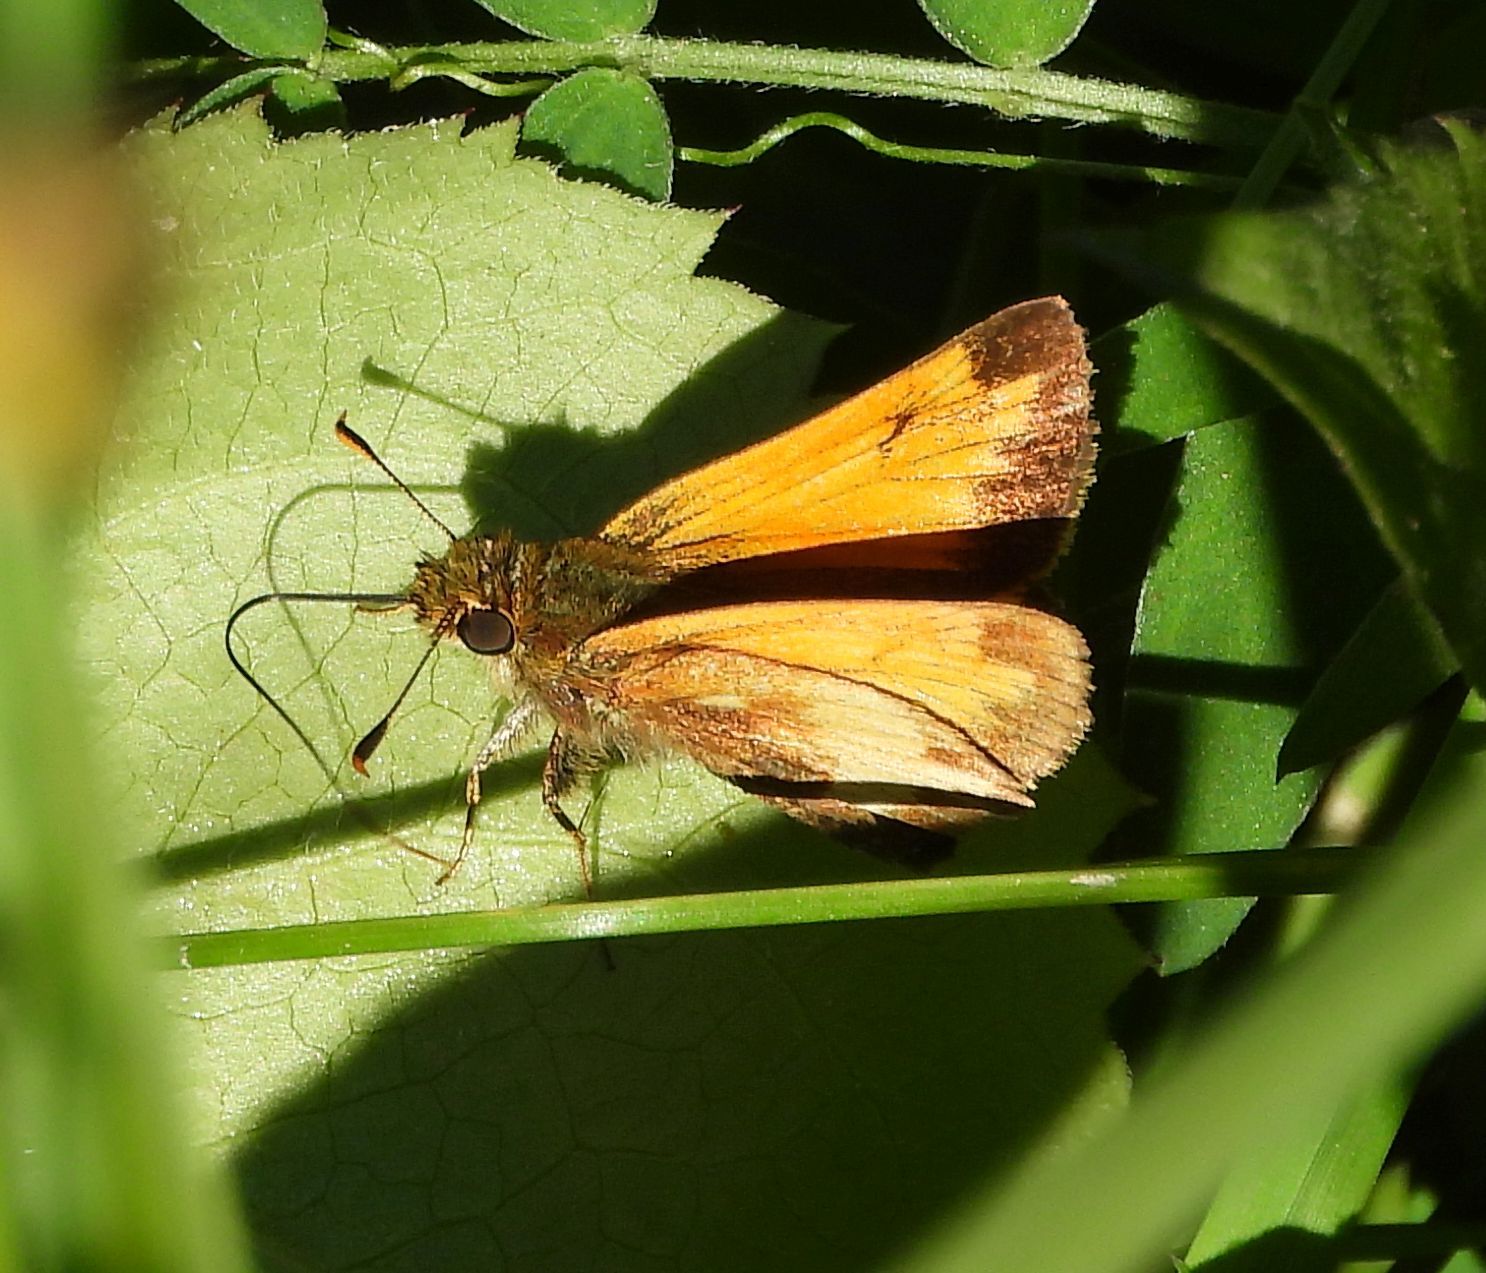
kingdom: Animalia
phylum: Arthropoda
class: Insecta
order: Lepidoptera
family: Hesperiidae
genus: Lon
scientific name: Lon hobomok
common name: Hobomok skipper
